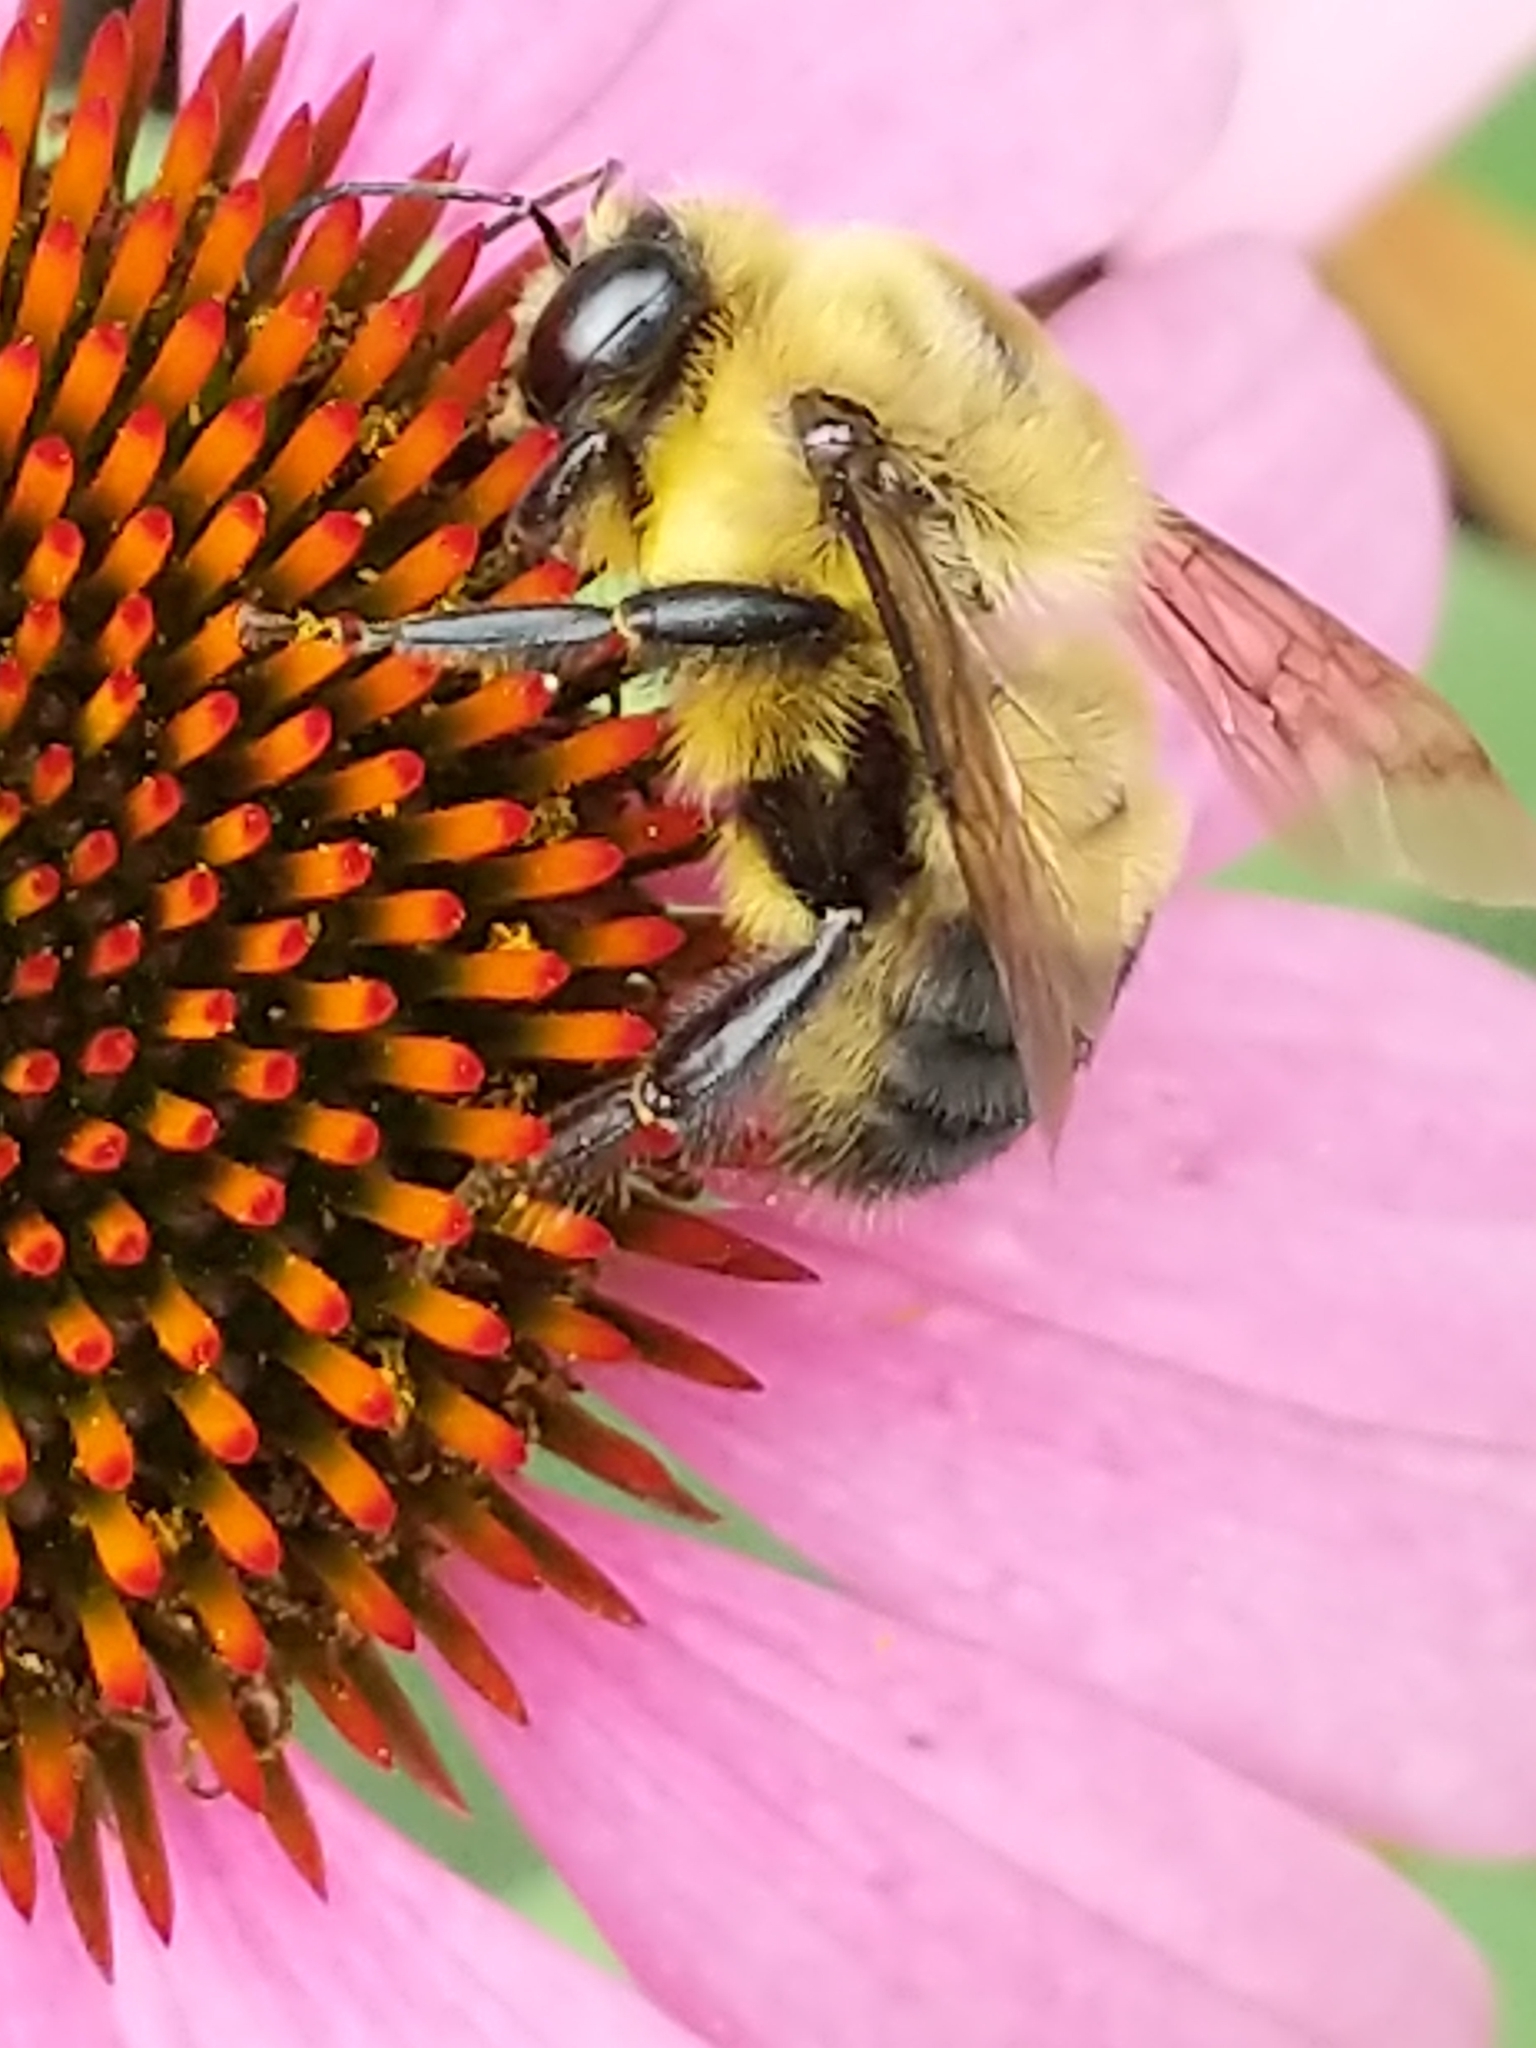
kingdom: Animalia
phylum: Arthropoda
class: Insecta
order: Hymenoptera
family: Apidae
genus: Bombus
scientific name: Bombus griseocollis
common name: Brown-belted bumble bee
